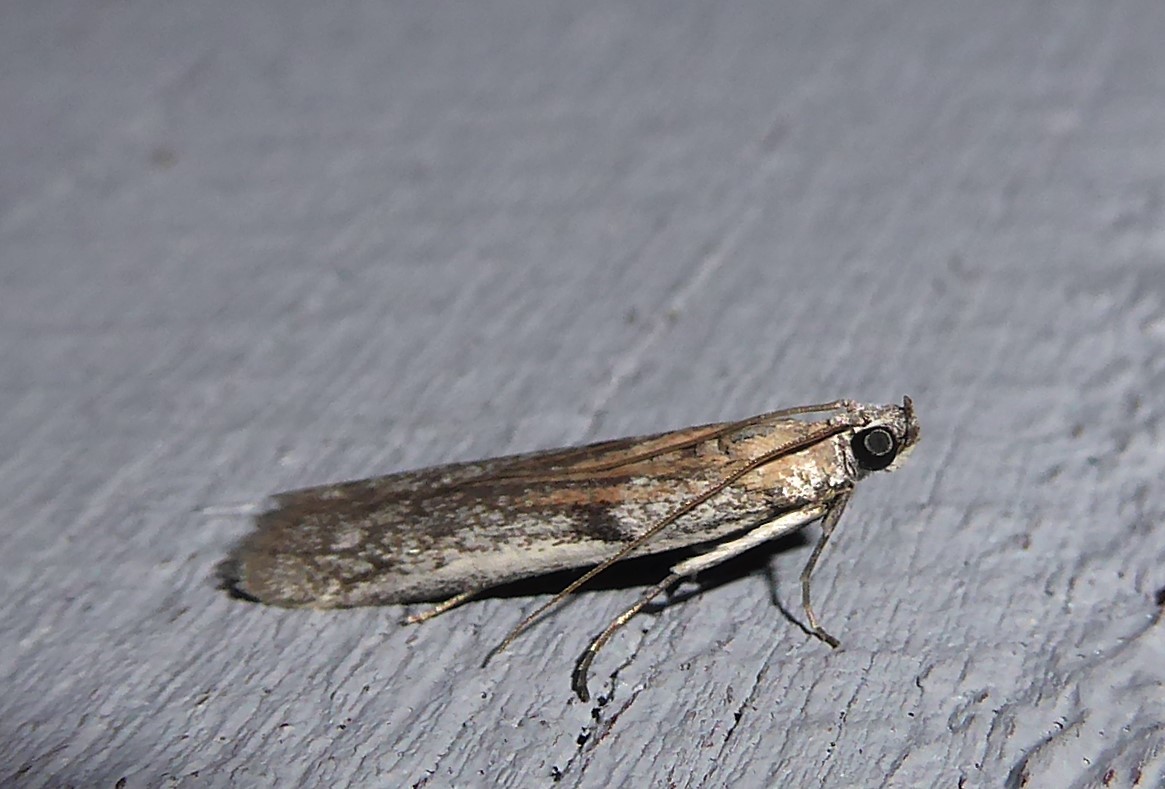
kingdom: Animalia
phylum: Arthropoda
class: Insecta
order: Lepidoptera
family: Pyralidae
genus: Patagoniodes
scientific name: Patagoniodes farinaria
